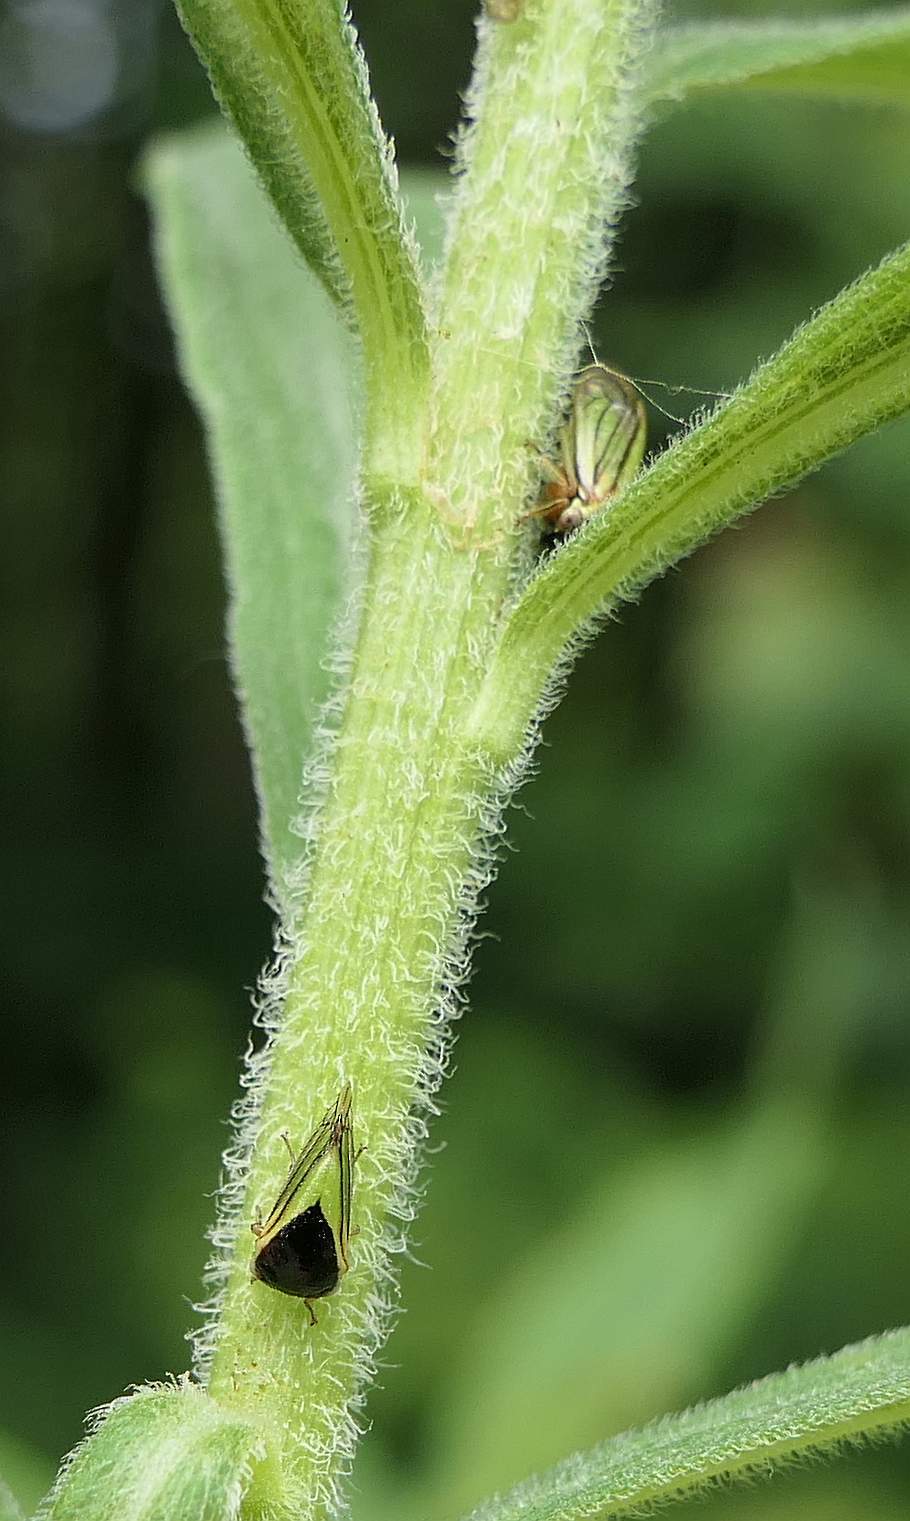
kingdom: Animalia
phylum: Arthropoda
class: Insecta
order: Hemiptera
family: Membracidae
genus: Acutalis
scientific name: Acutalis tartarea
